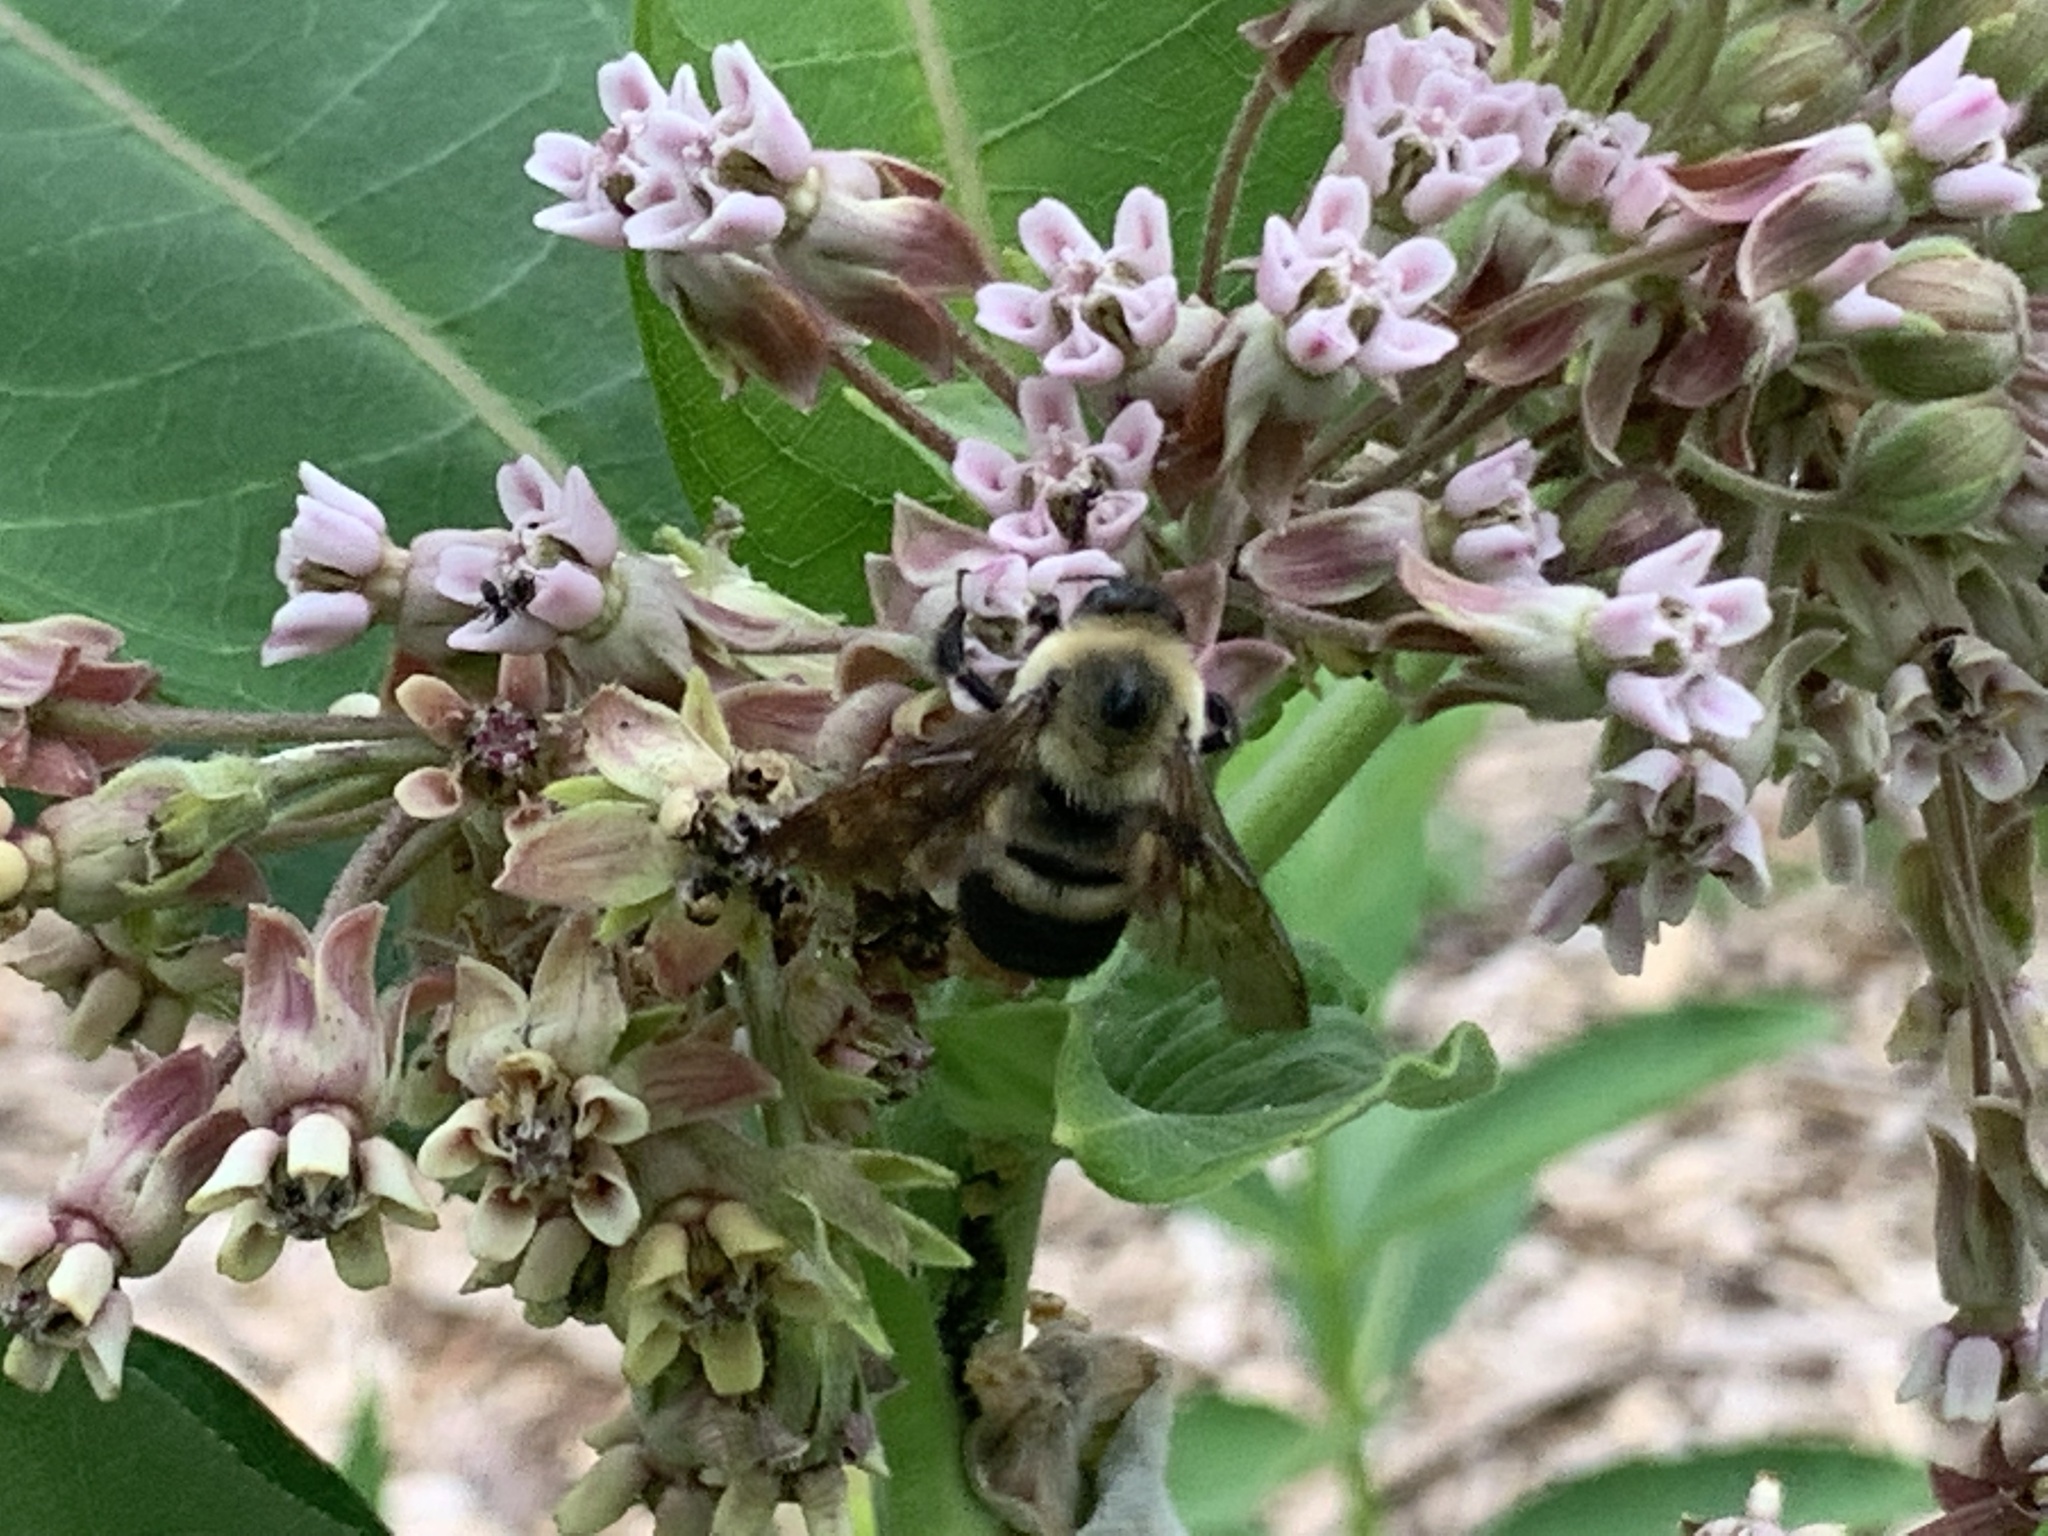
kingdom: Animalia
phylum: Arthropoda
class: Insecta
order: Hymenoptera
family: Apidae
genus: Bombus
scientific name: Bombus griseocollis
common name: Brown-belted bumble bee
